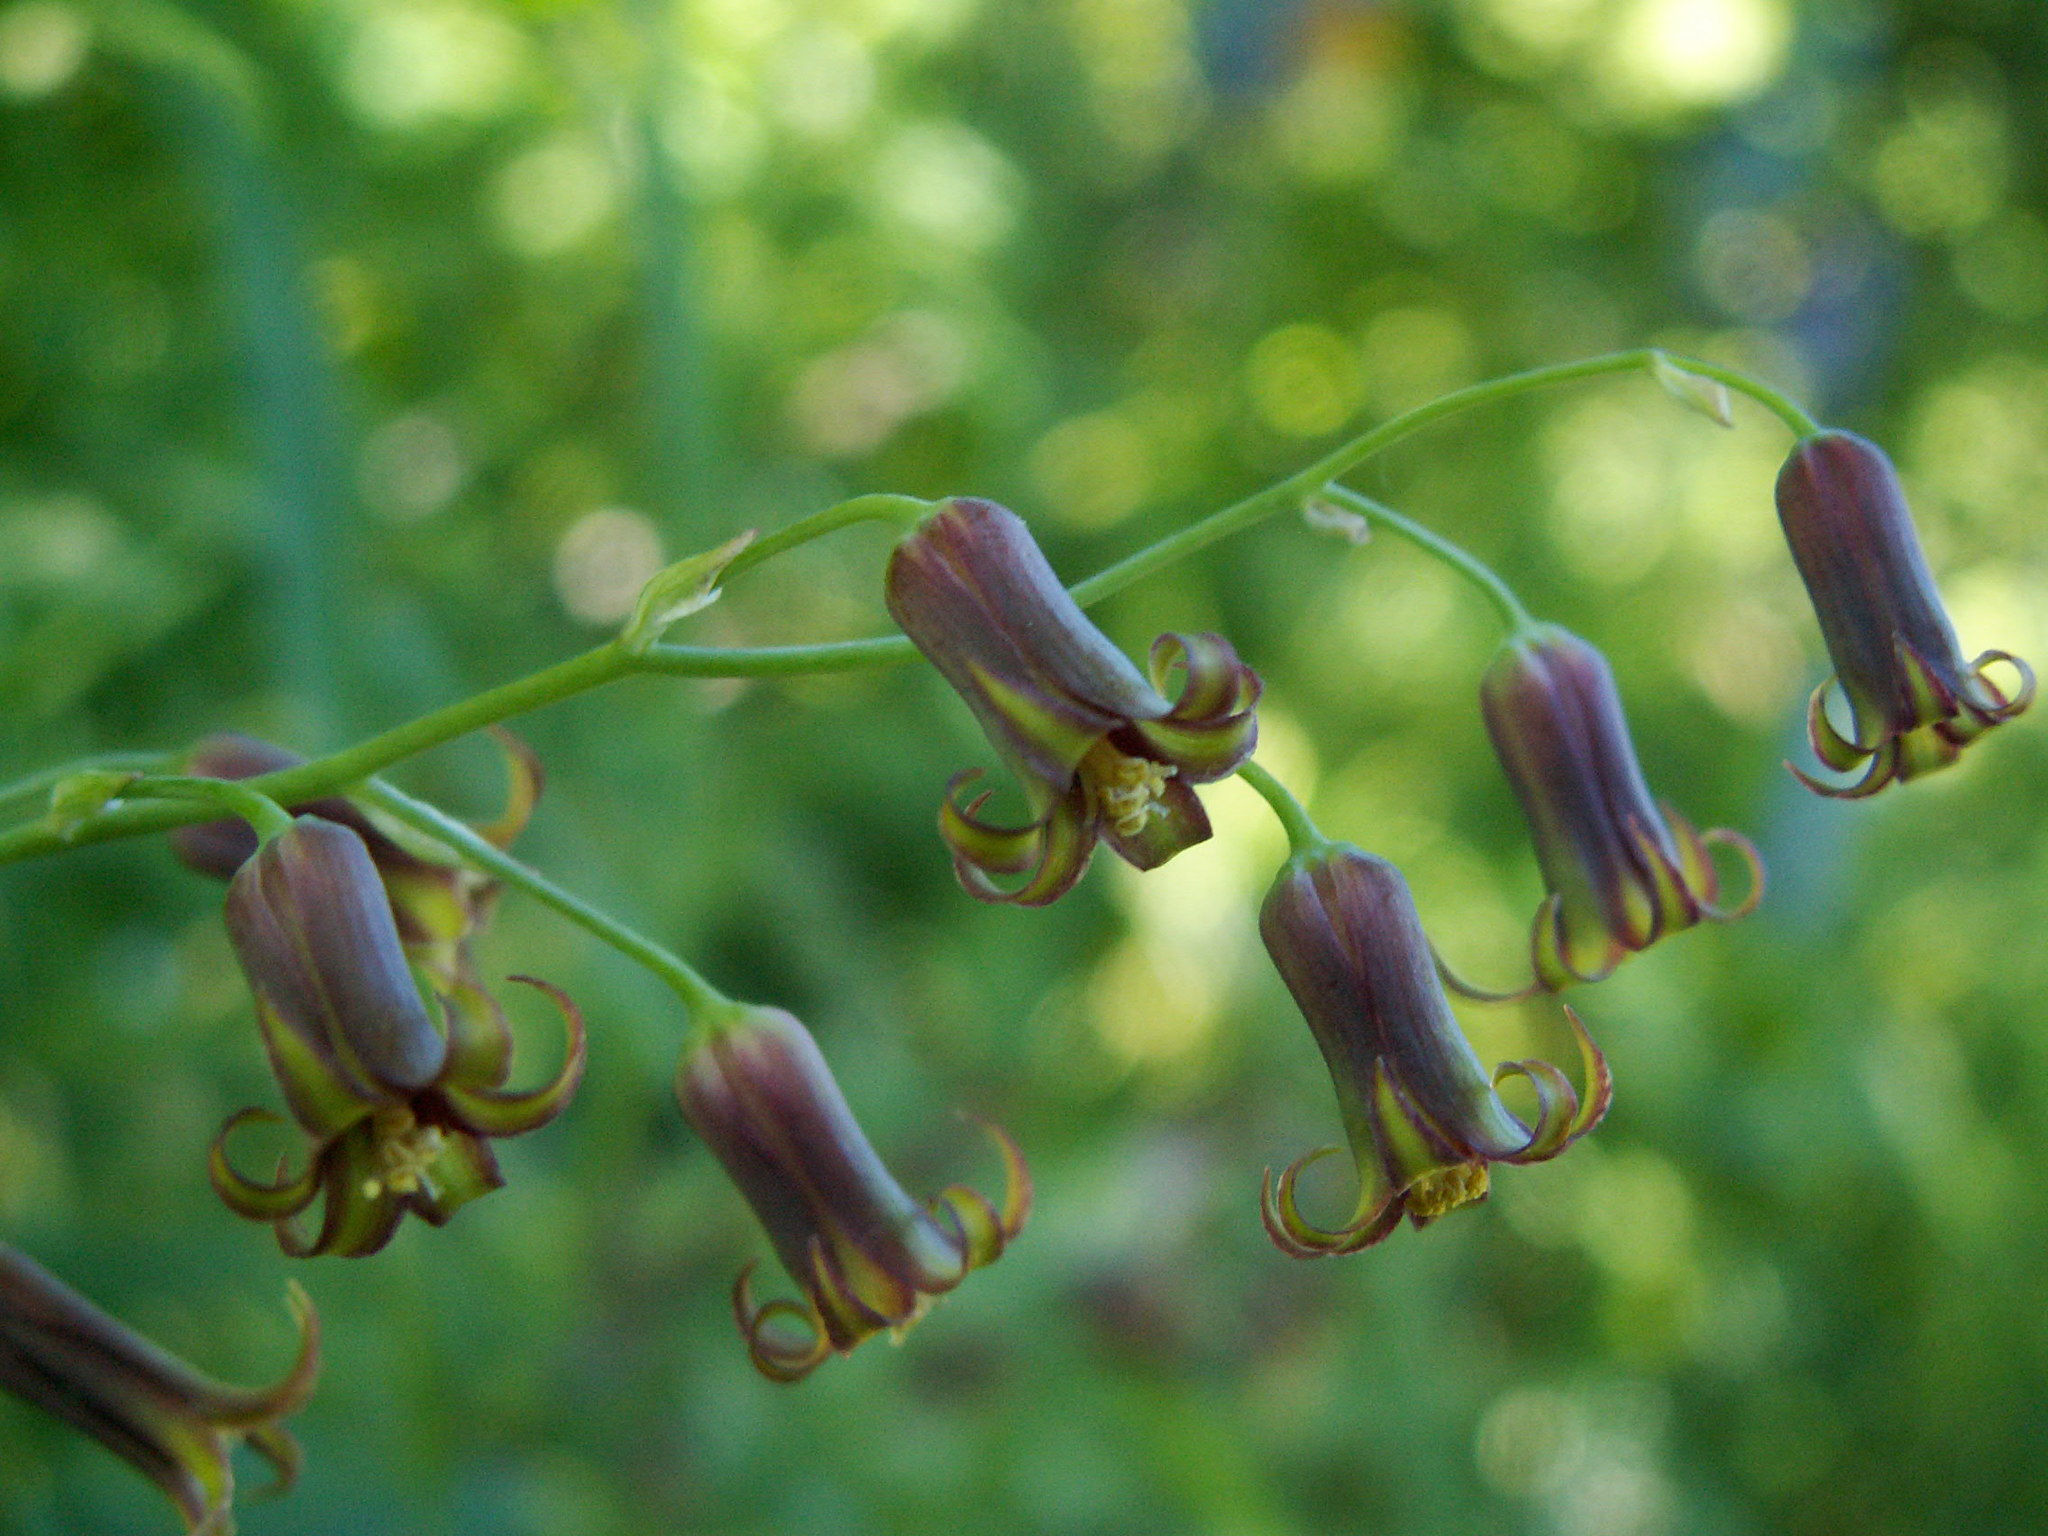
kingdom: Plantae
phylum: Tracheophyta
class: Liliopsida
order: Liliales
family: Melanthiaceae
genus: Anticlea
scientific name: Anticlea occidentalis
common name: Bronze-bells
